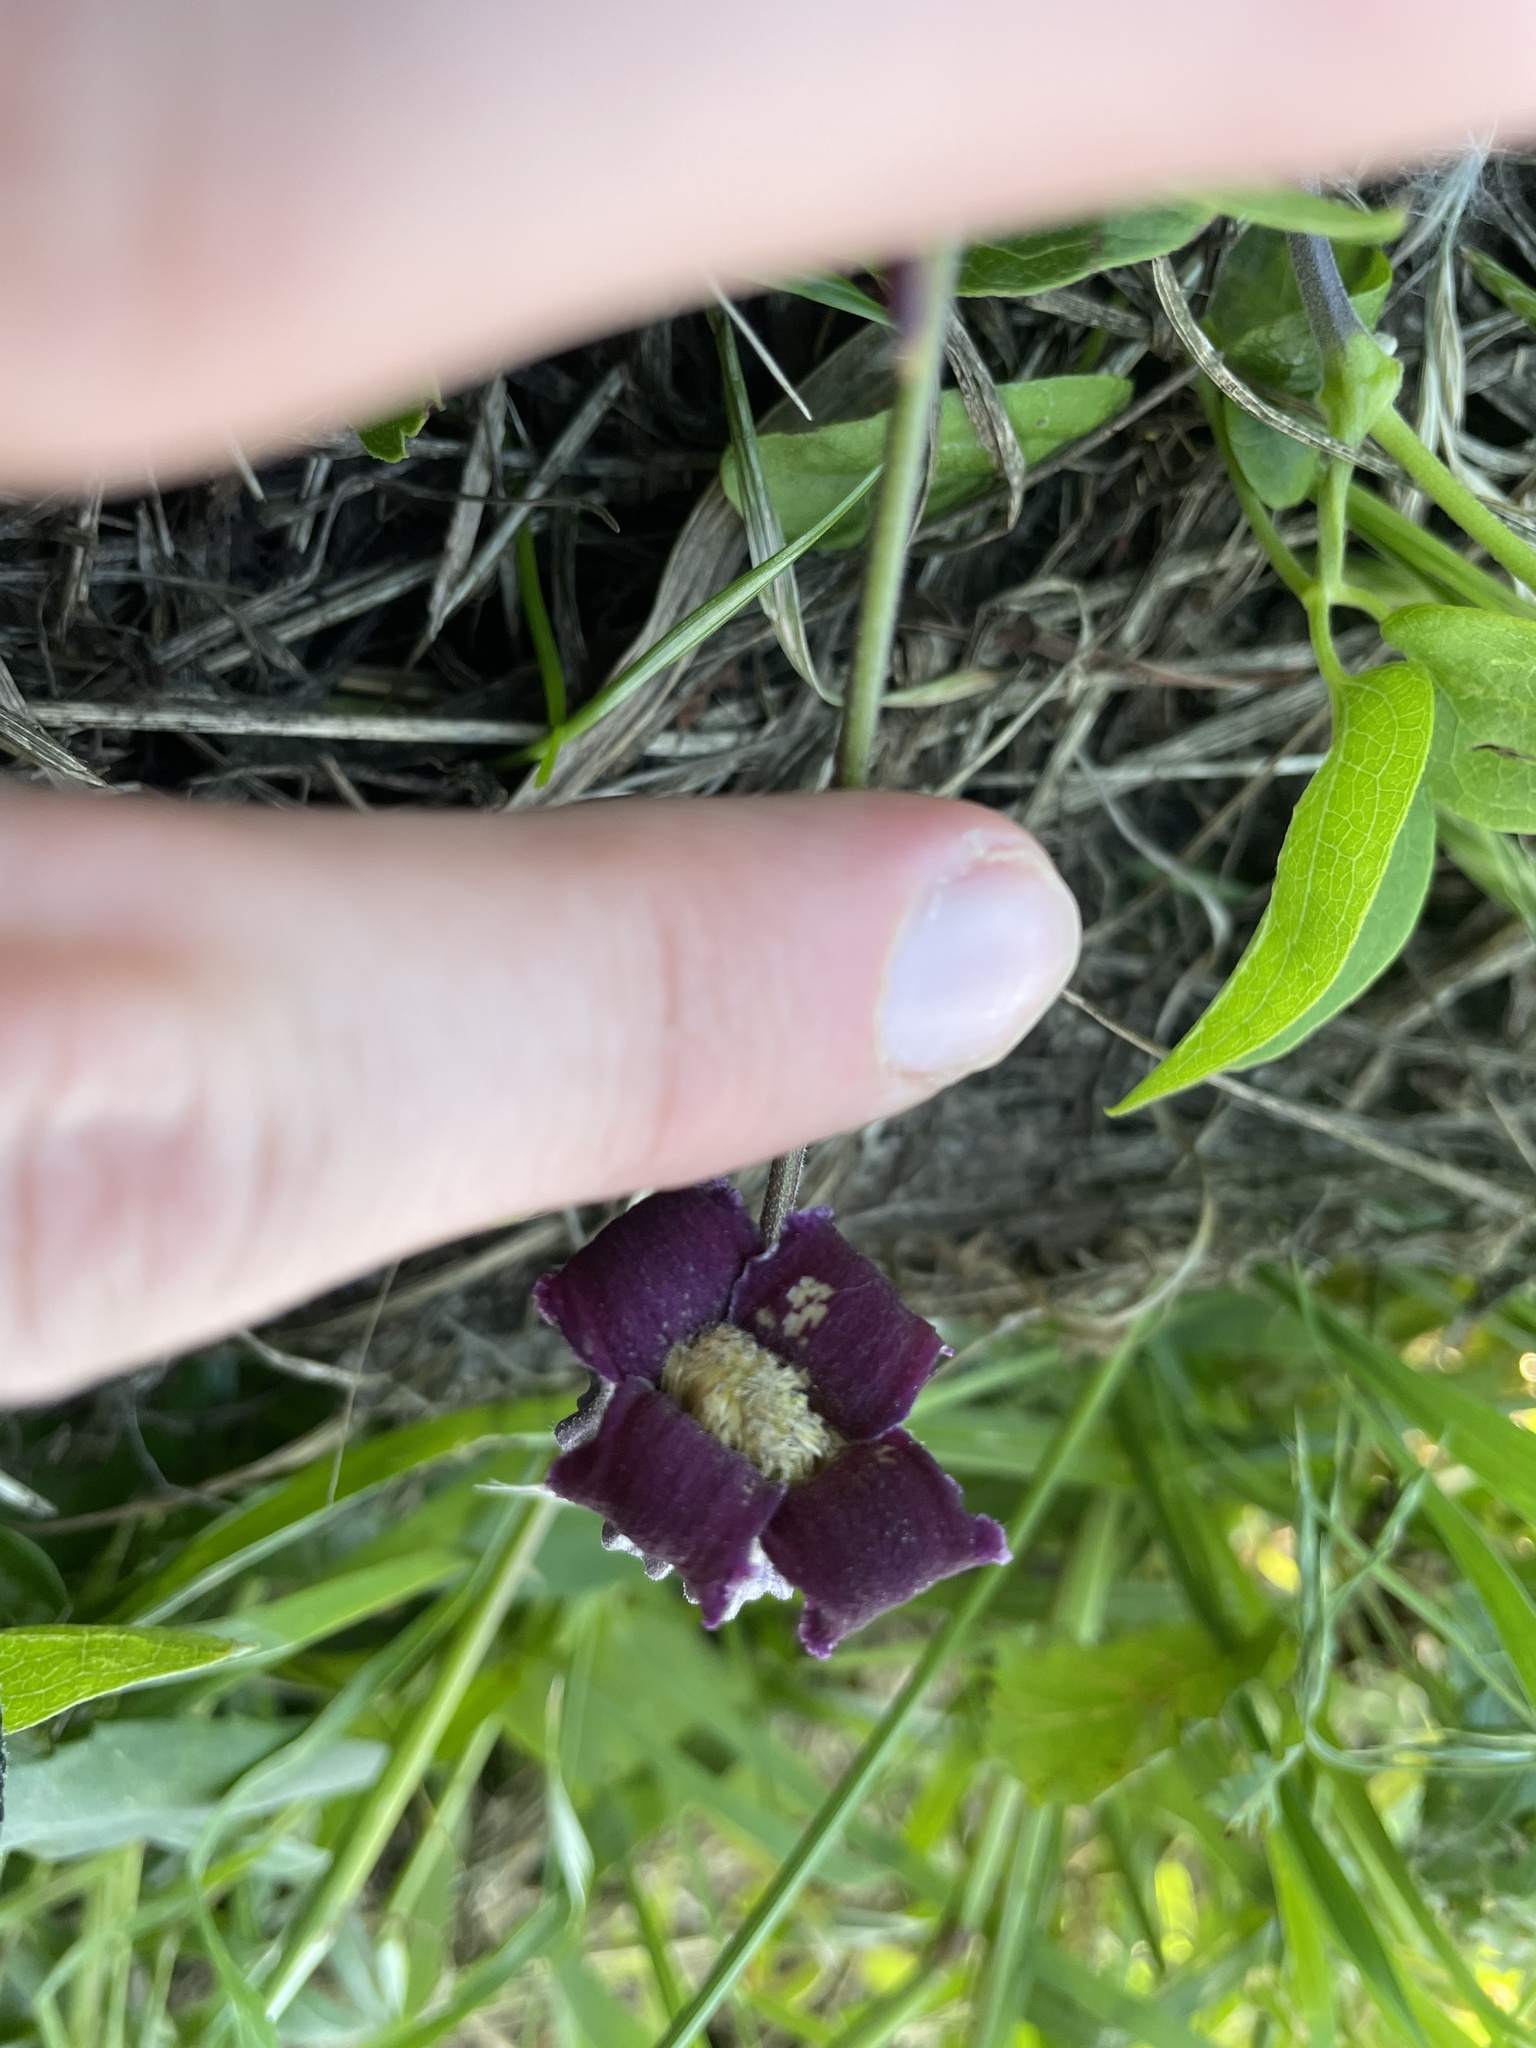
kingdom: Plantae
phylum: Tracheophyta
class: Magnoliopsida
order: Ranunculales
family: Ranunculaceae
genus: Clematis
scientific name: Clematis pitcheri
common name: Bellflower clematis
